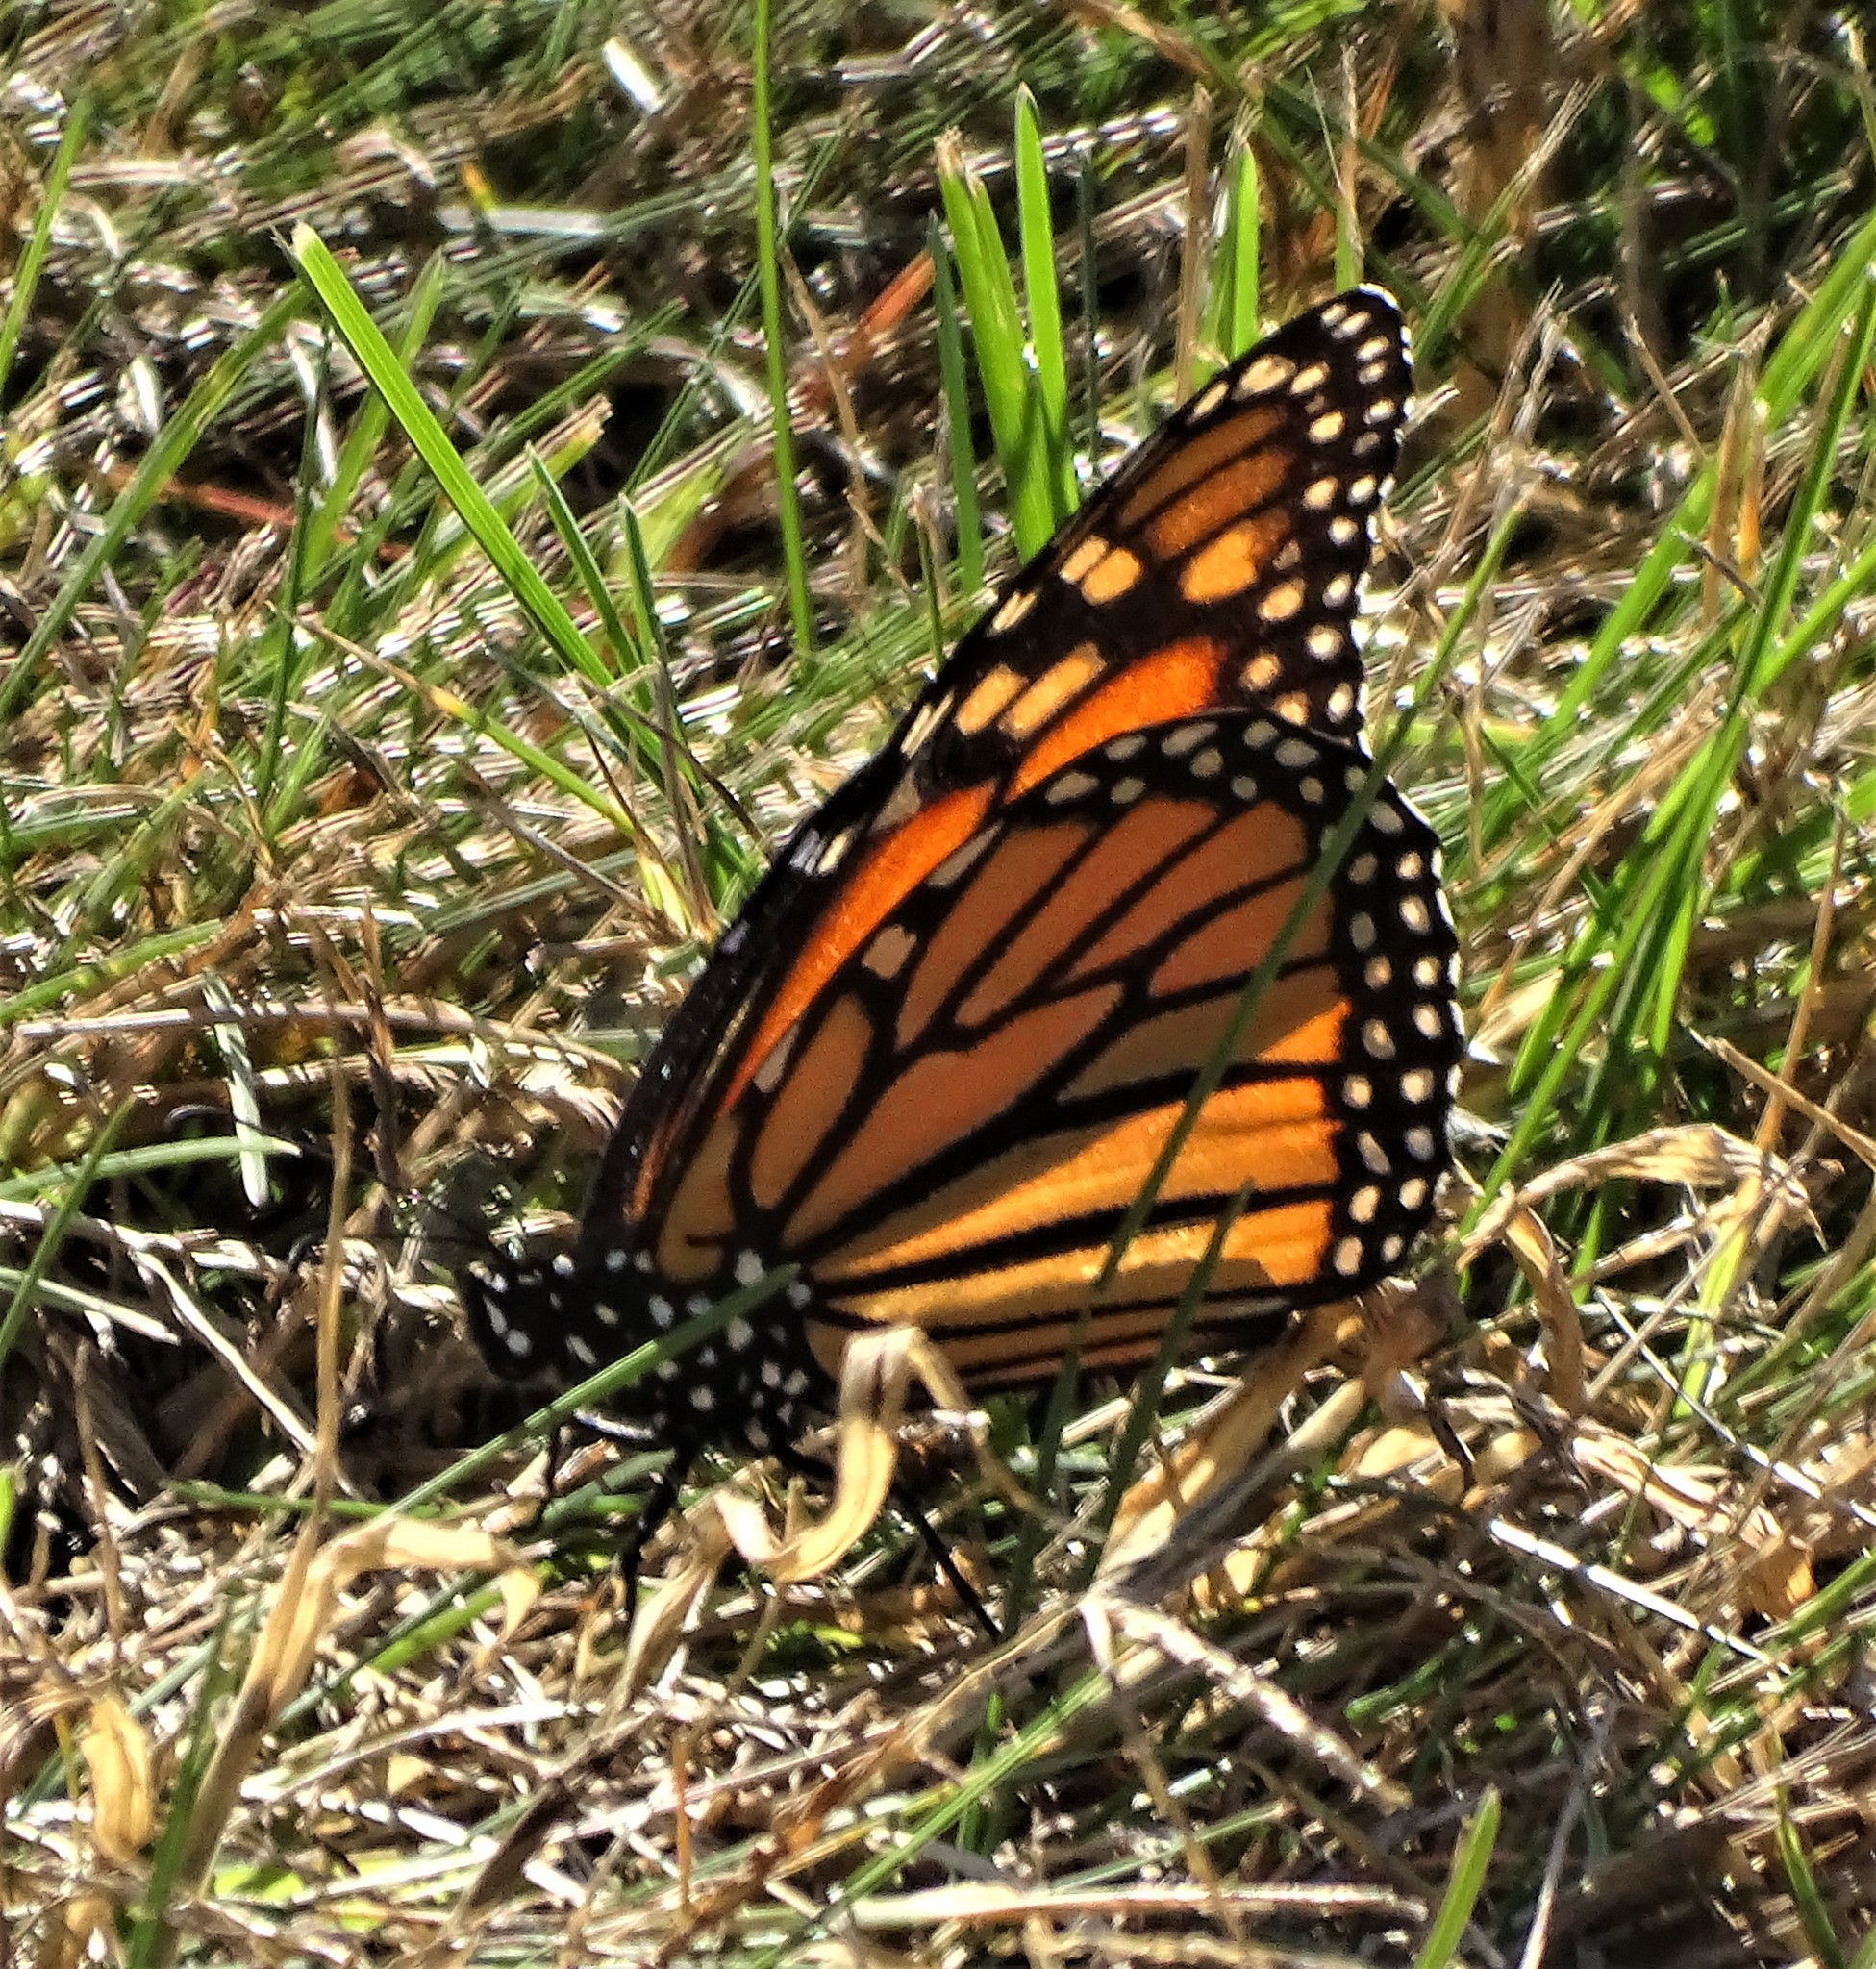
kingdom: Animalia
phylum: Arthropoda
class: Insecta
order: Lepidoptera
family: Nymphalidae
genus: Danaus
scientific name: Danaus plexippus
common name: Monarch
